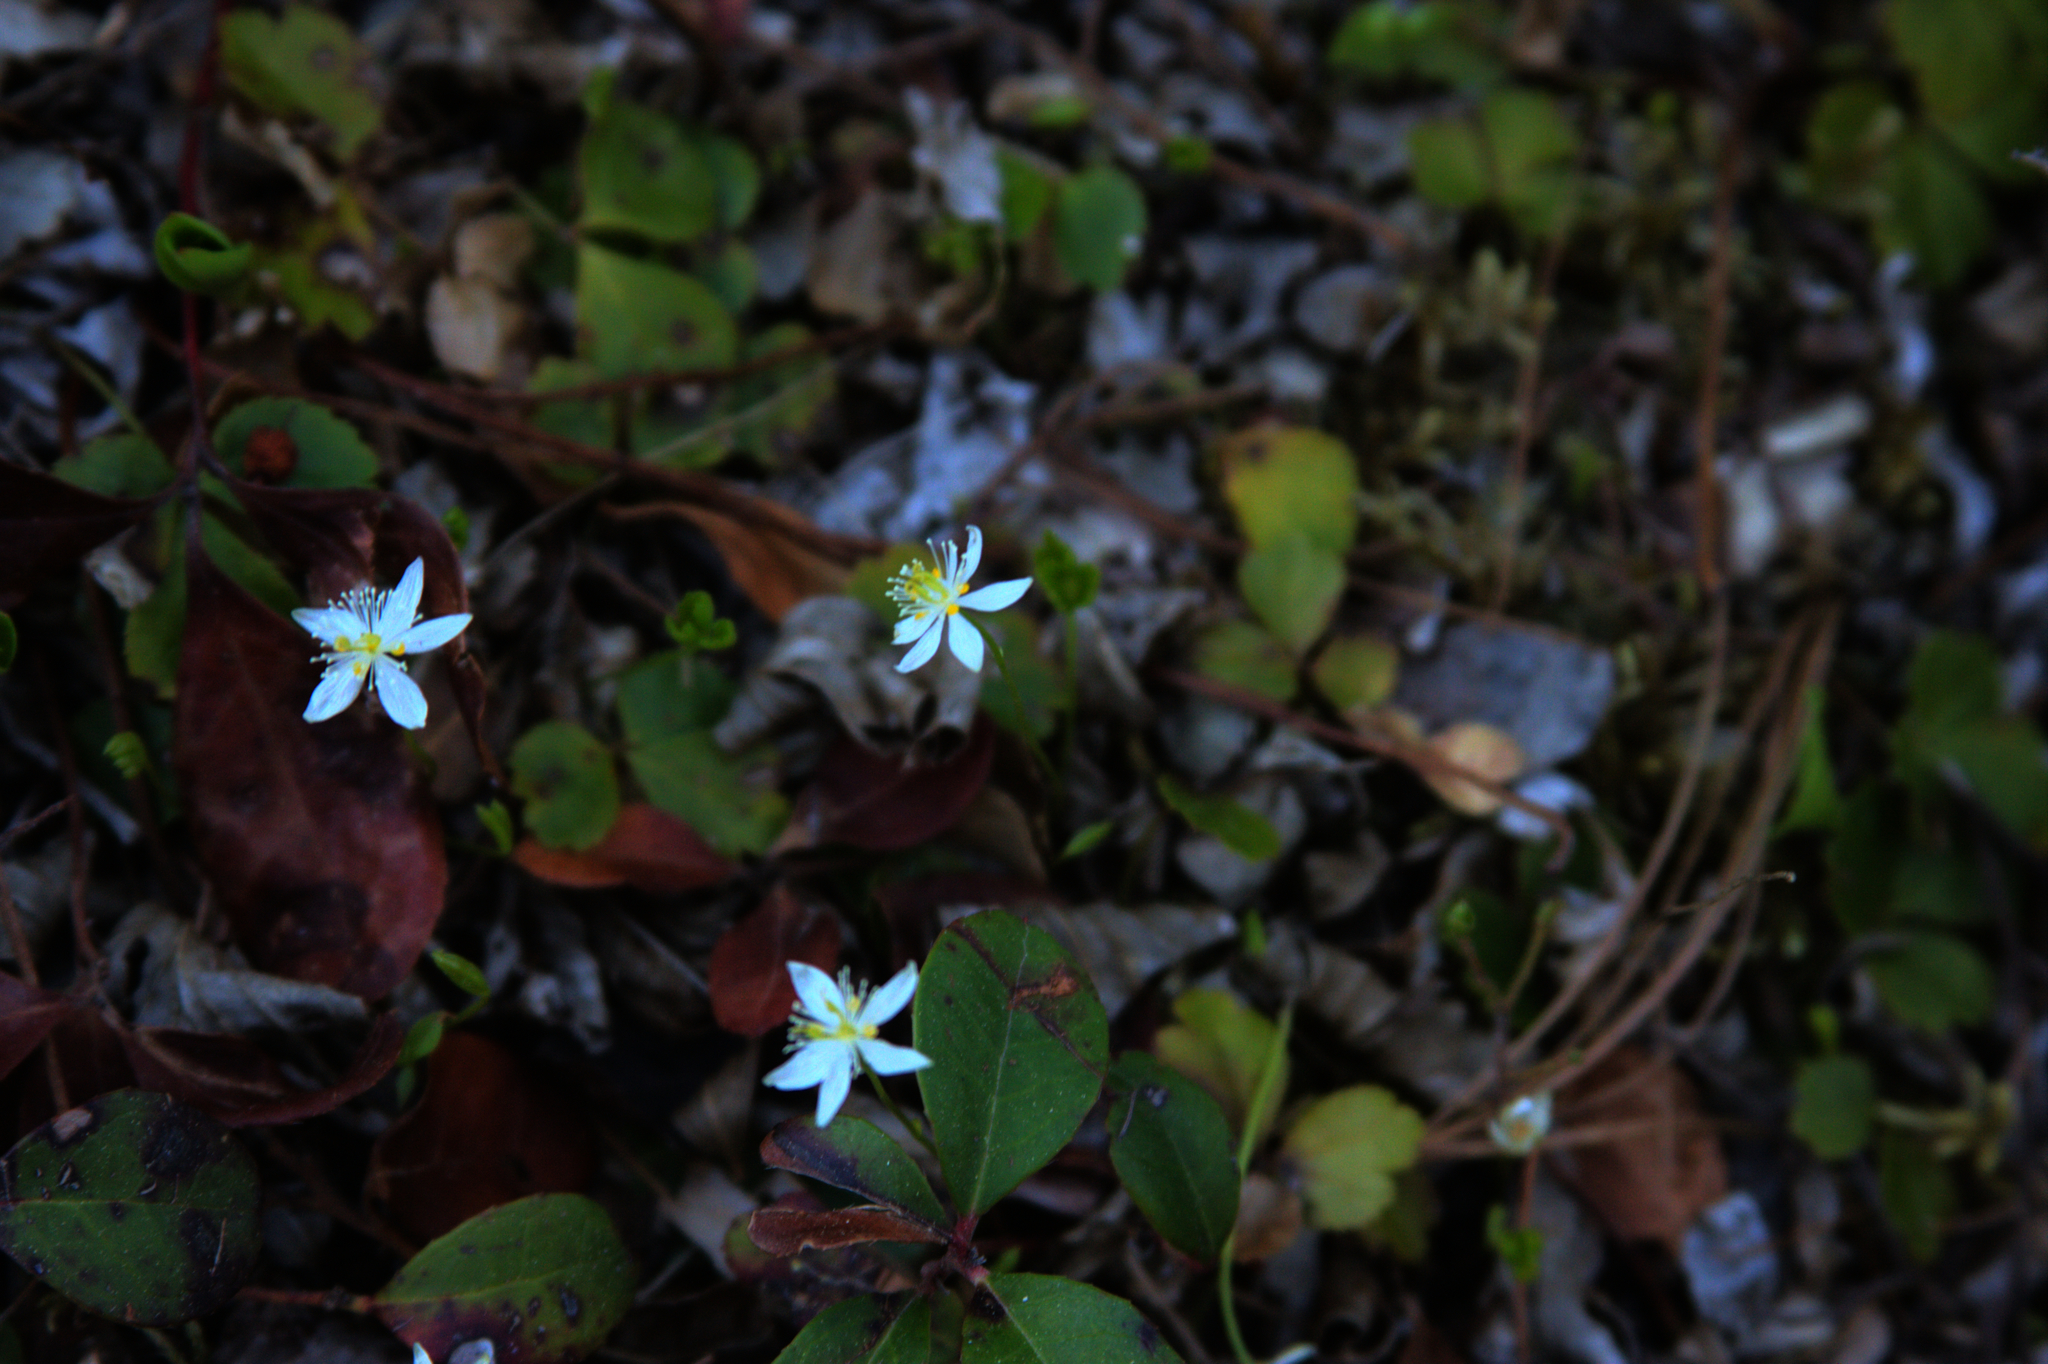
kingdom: Plantae
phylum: Tracheophyta
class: Magnoliopsida
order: Ranunculales
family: Ranunculaceae
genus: Coptis
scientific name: Coptis trifolia
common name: Canker-root
